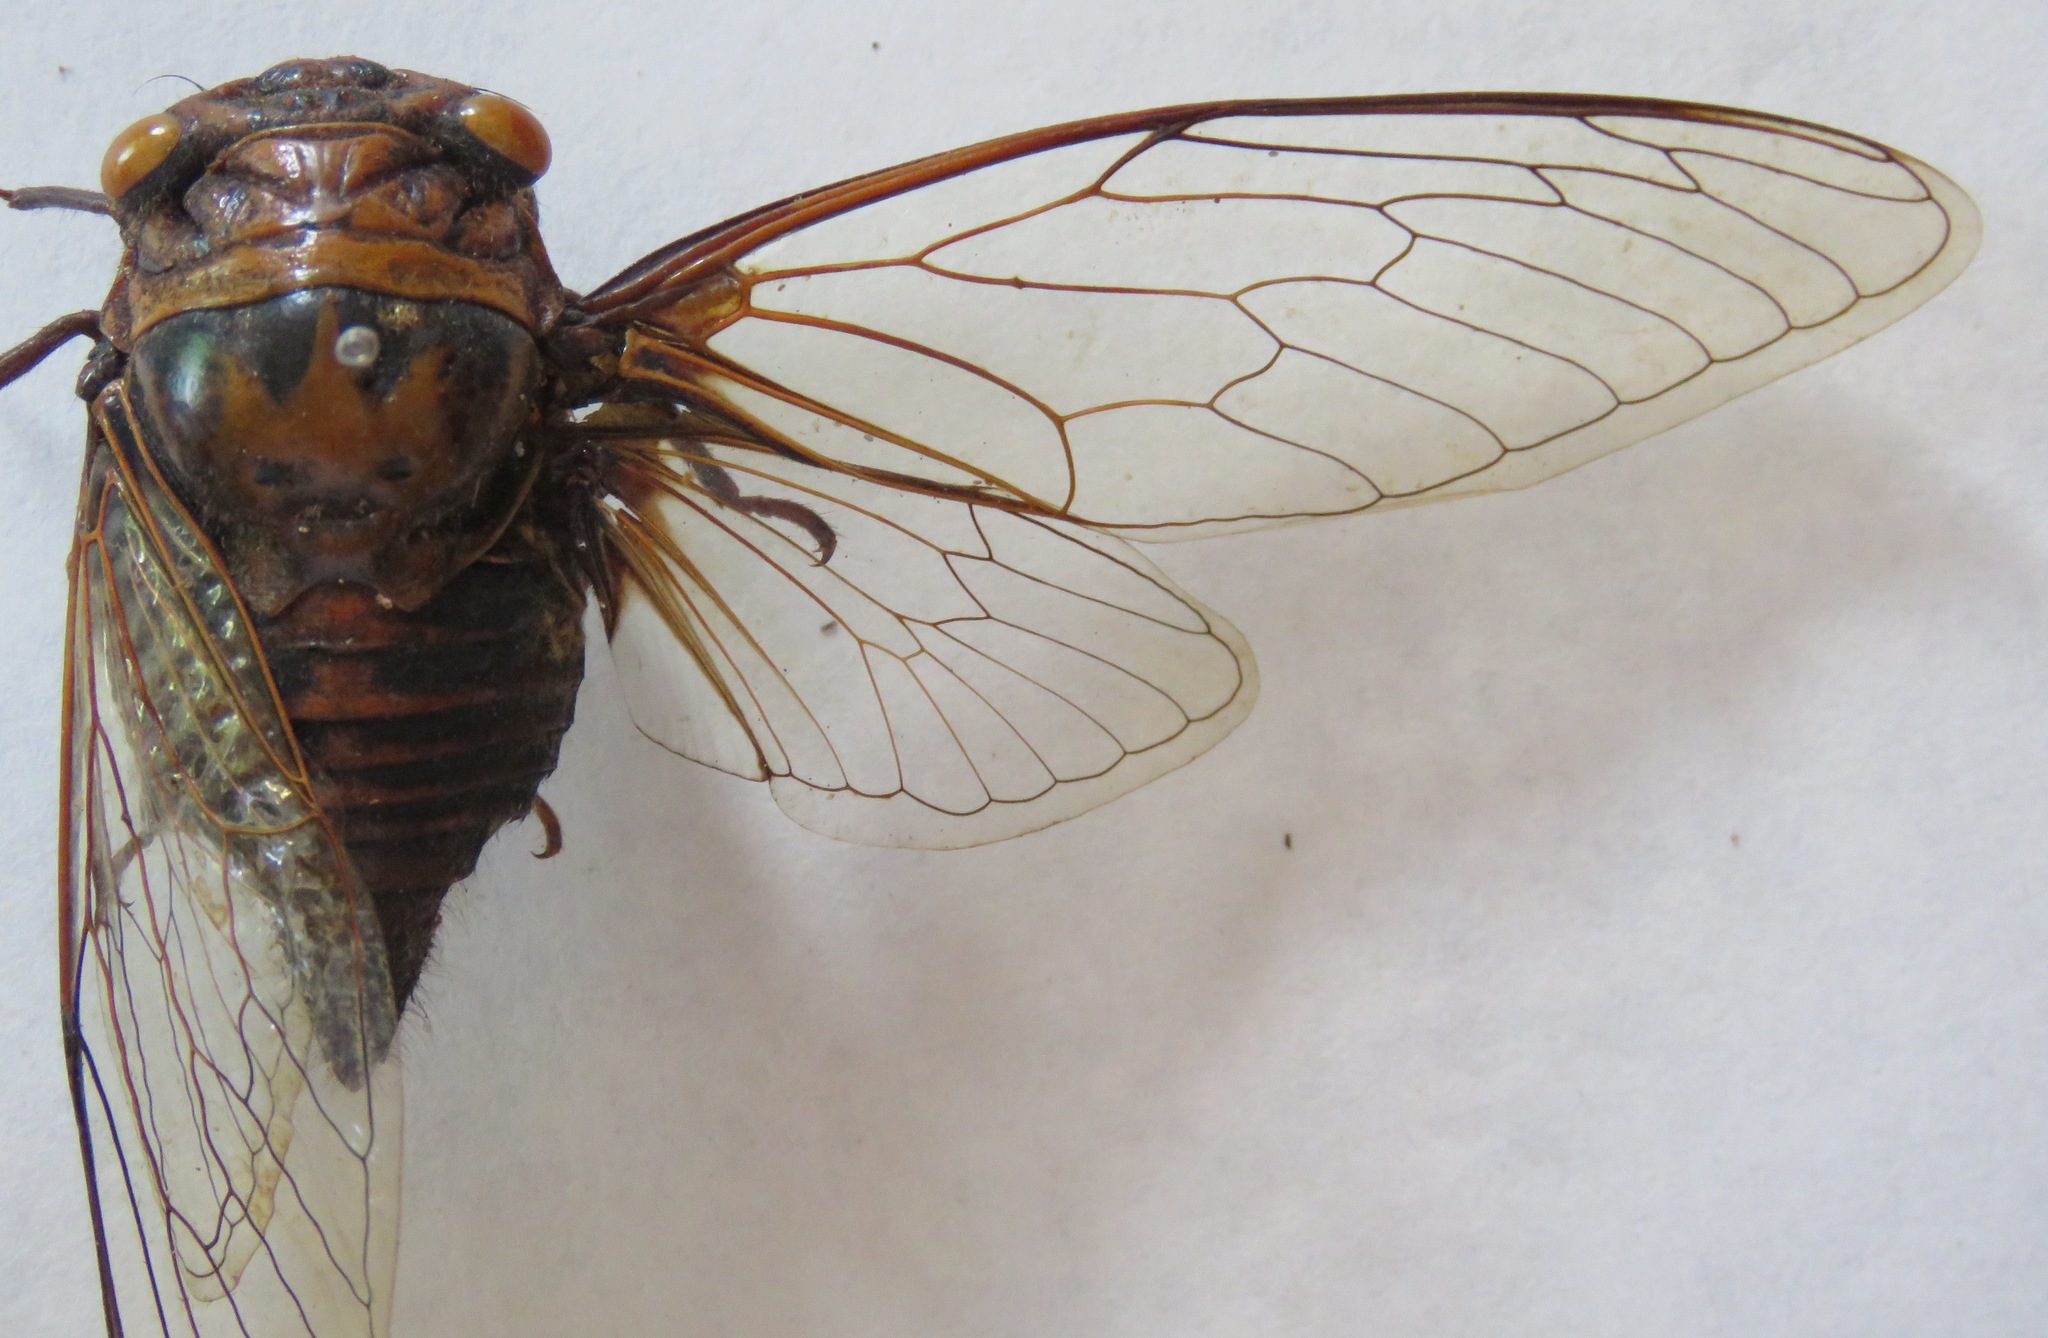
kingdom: Animalia
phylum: Arthropoda
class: Insecta
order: Hemiptera
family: Cicadidae
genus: Fidicinoides
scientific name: Fidicinoides pronoe
